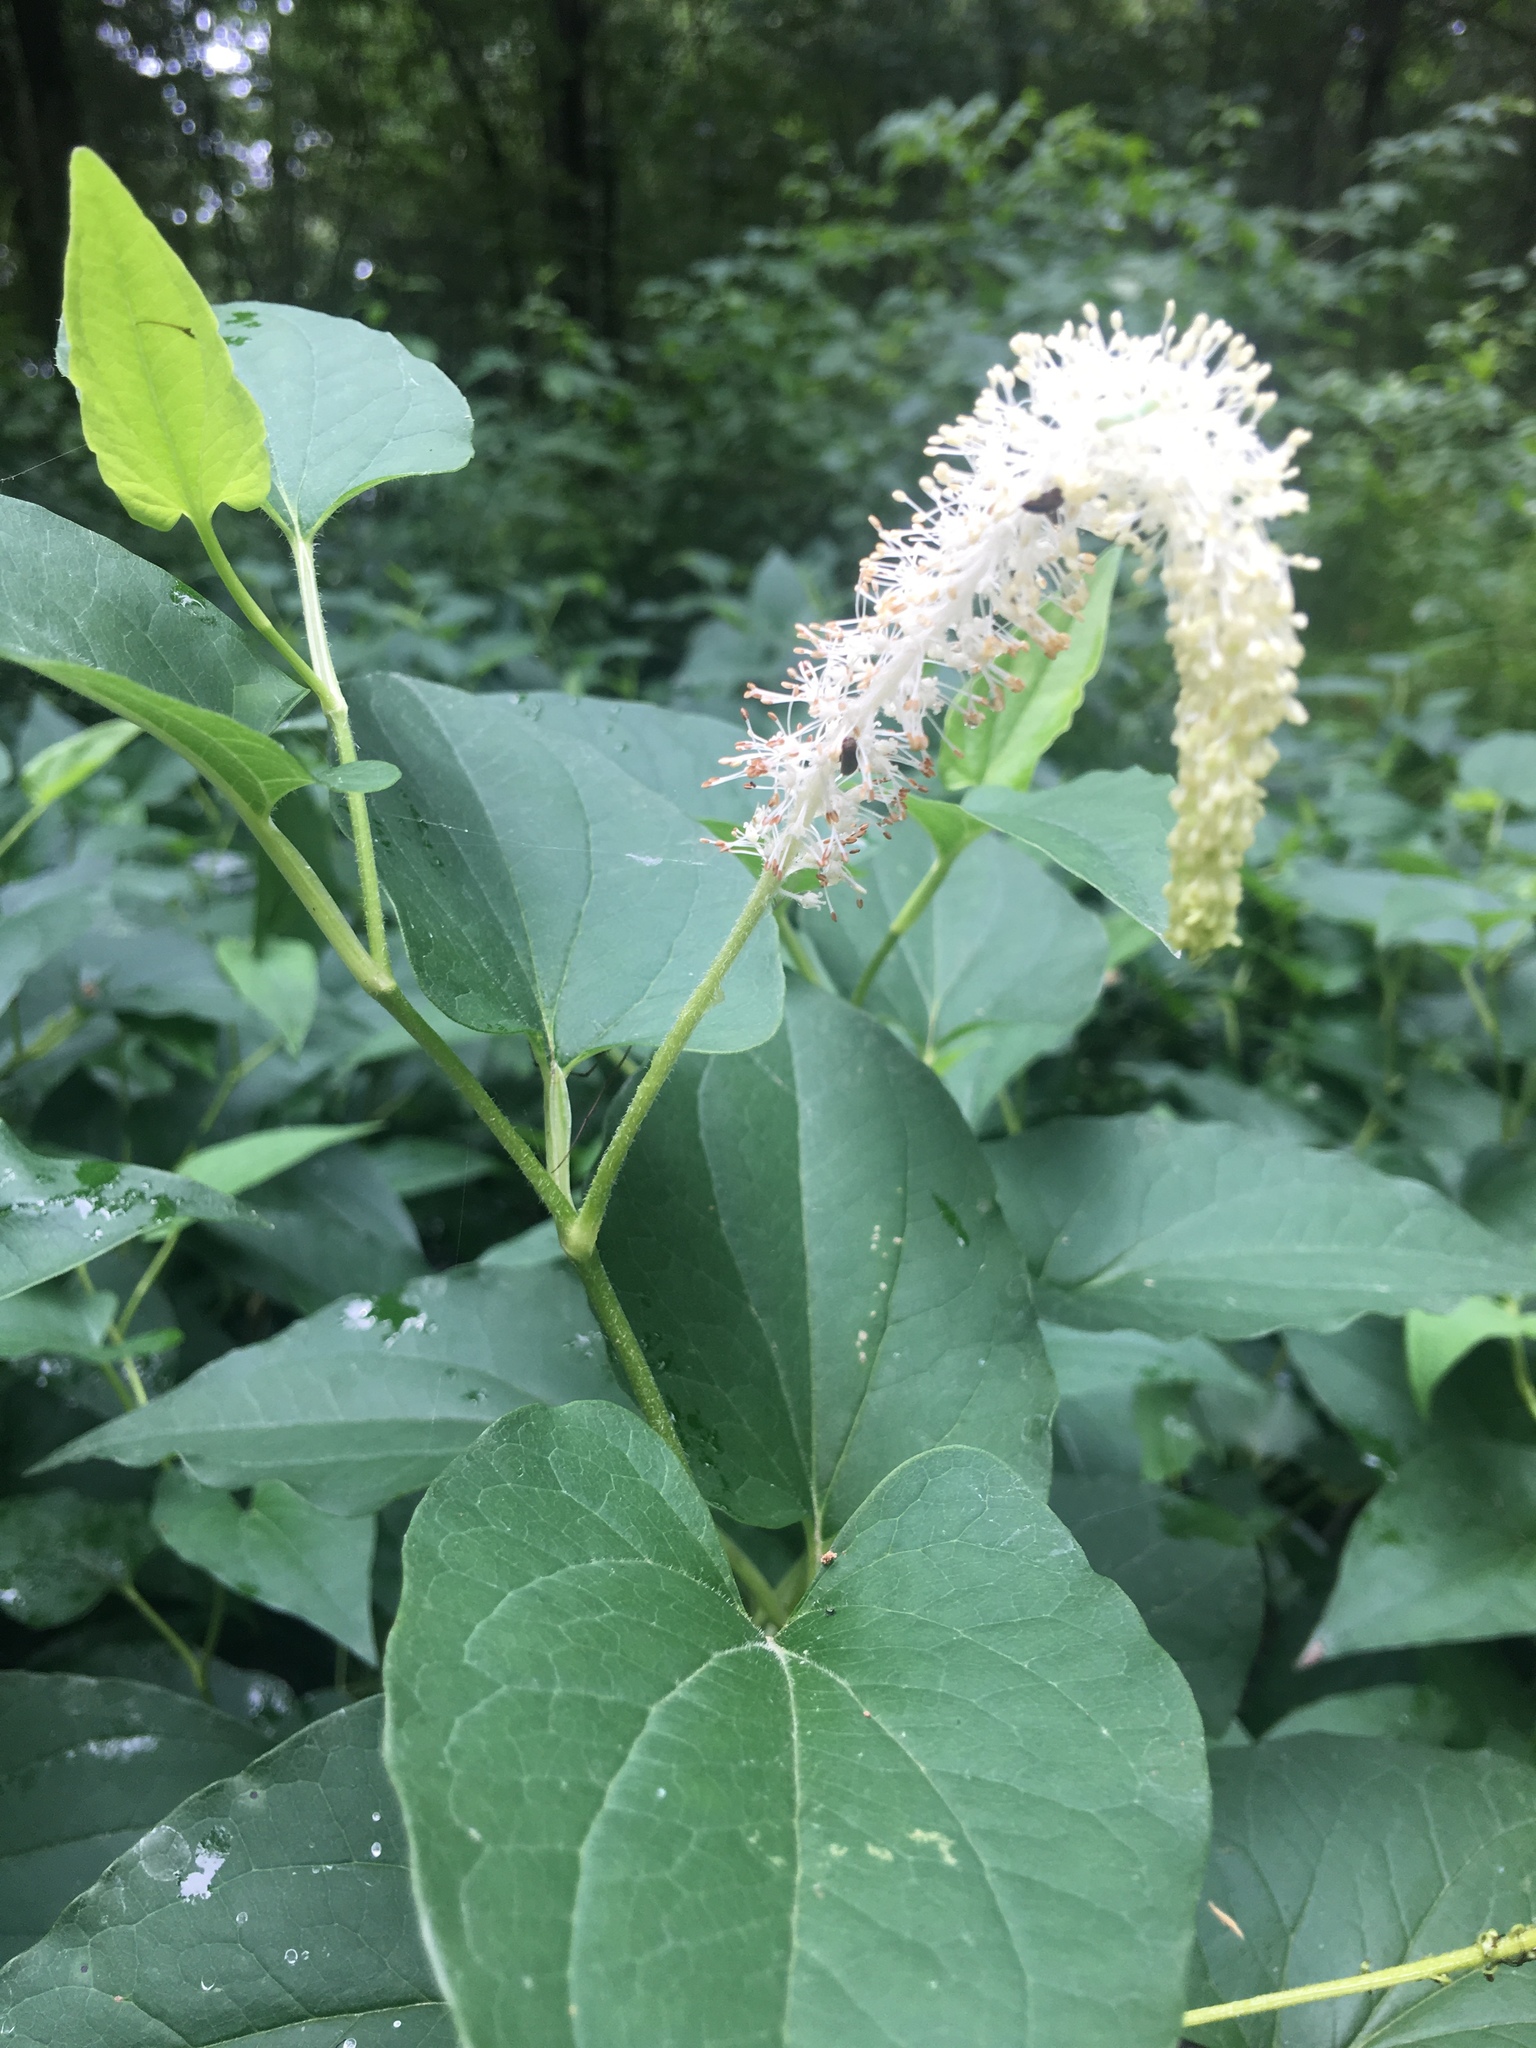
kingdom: Plantae
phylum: Tracheophyta
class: Magnoliopsida
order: Piperales
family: Saururaceae
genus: Saururus
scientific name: Saururus cernuus
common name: Lizard's-tail
